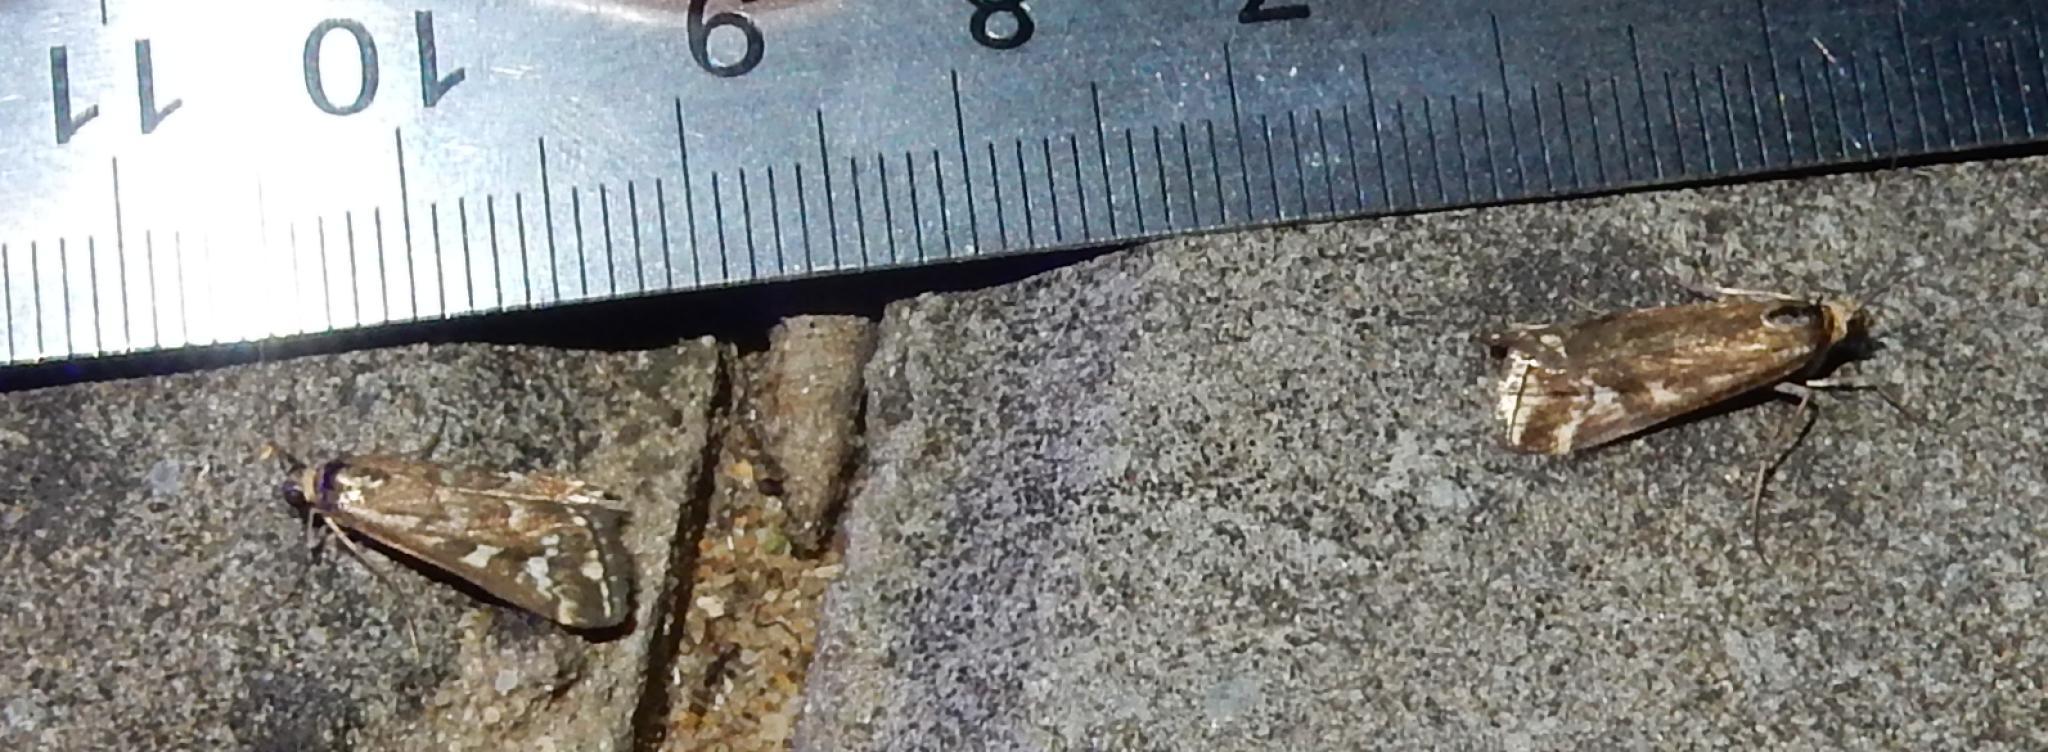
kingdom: Animalia
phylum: Arthropoda
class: Insecta
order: Lepidoptera
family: Crambidae
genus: Loxostege
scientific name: Loxostege frustalis
